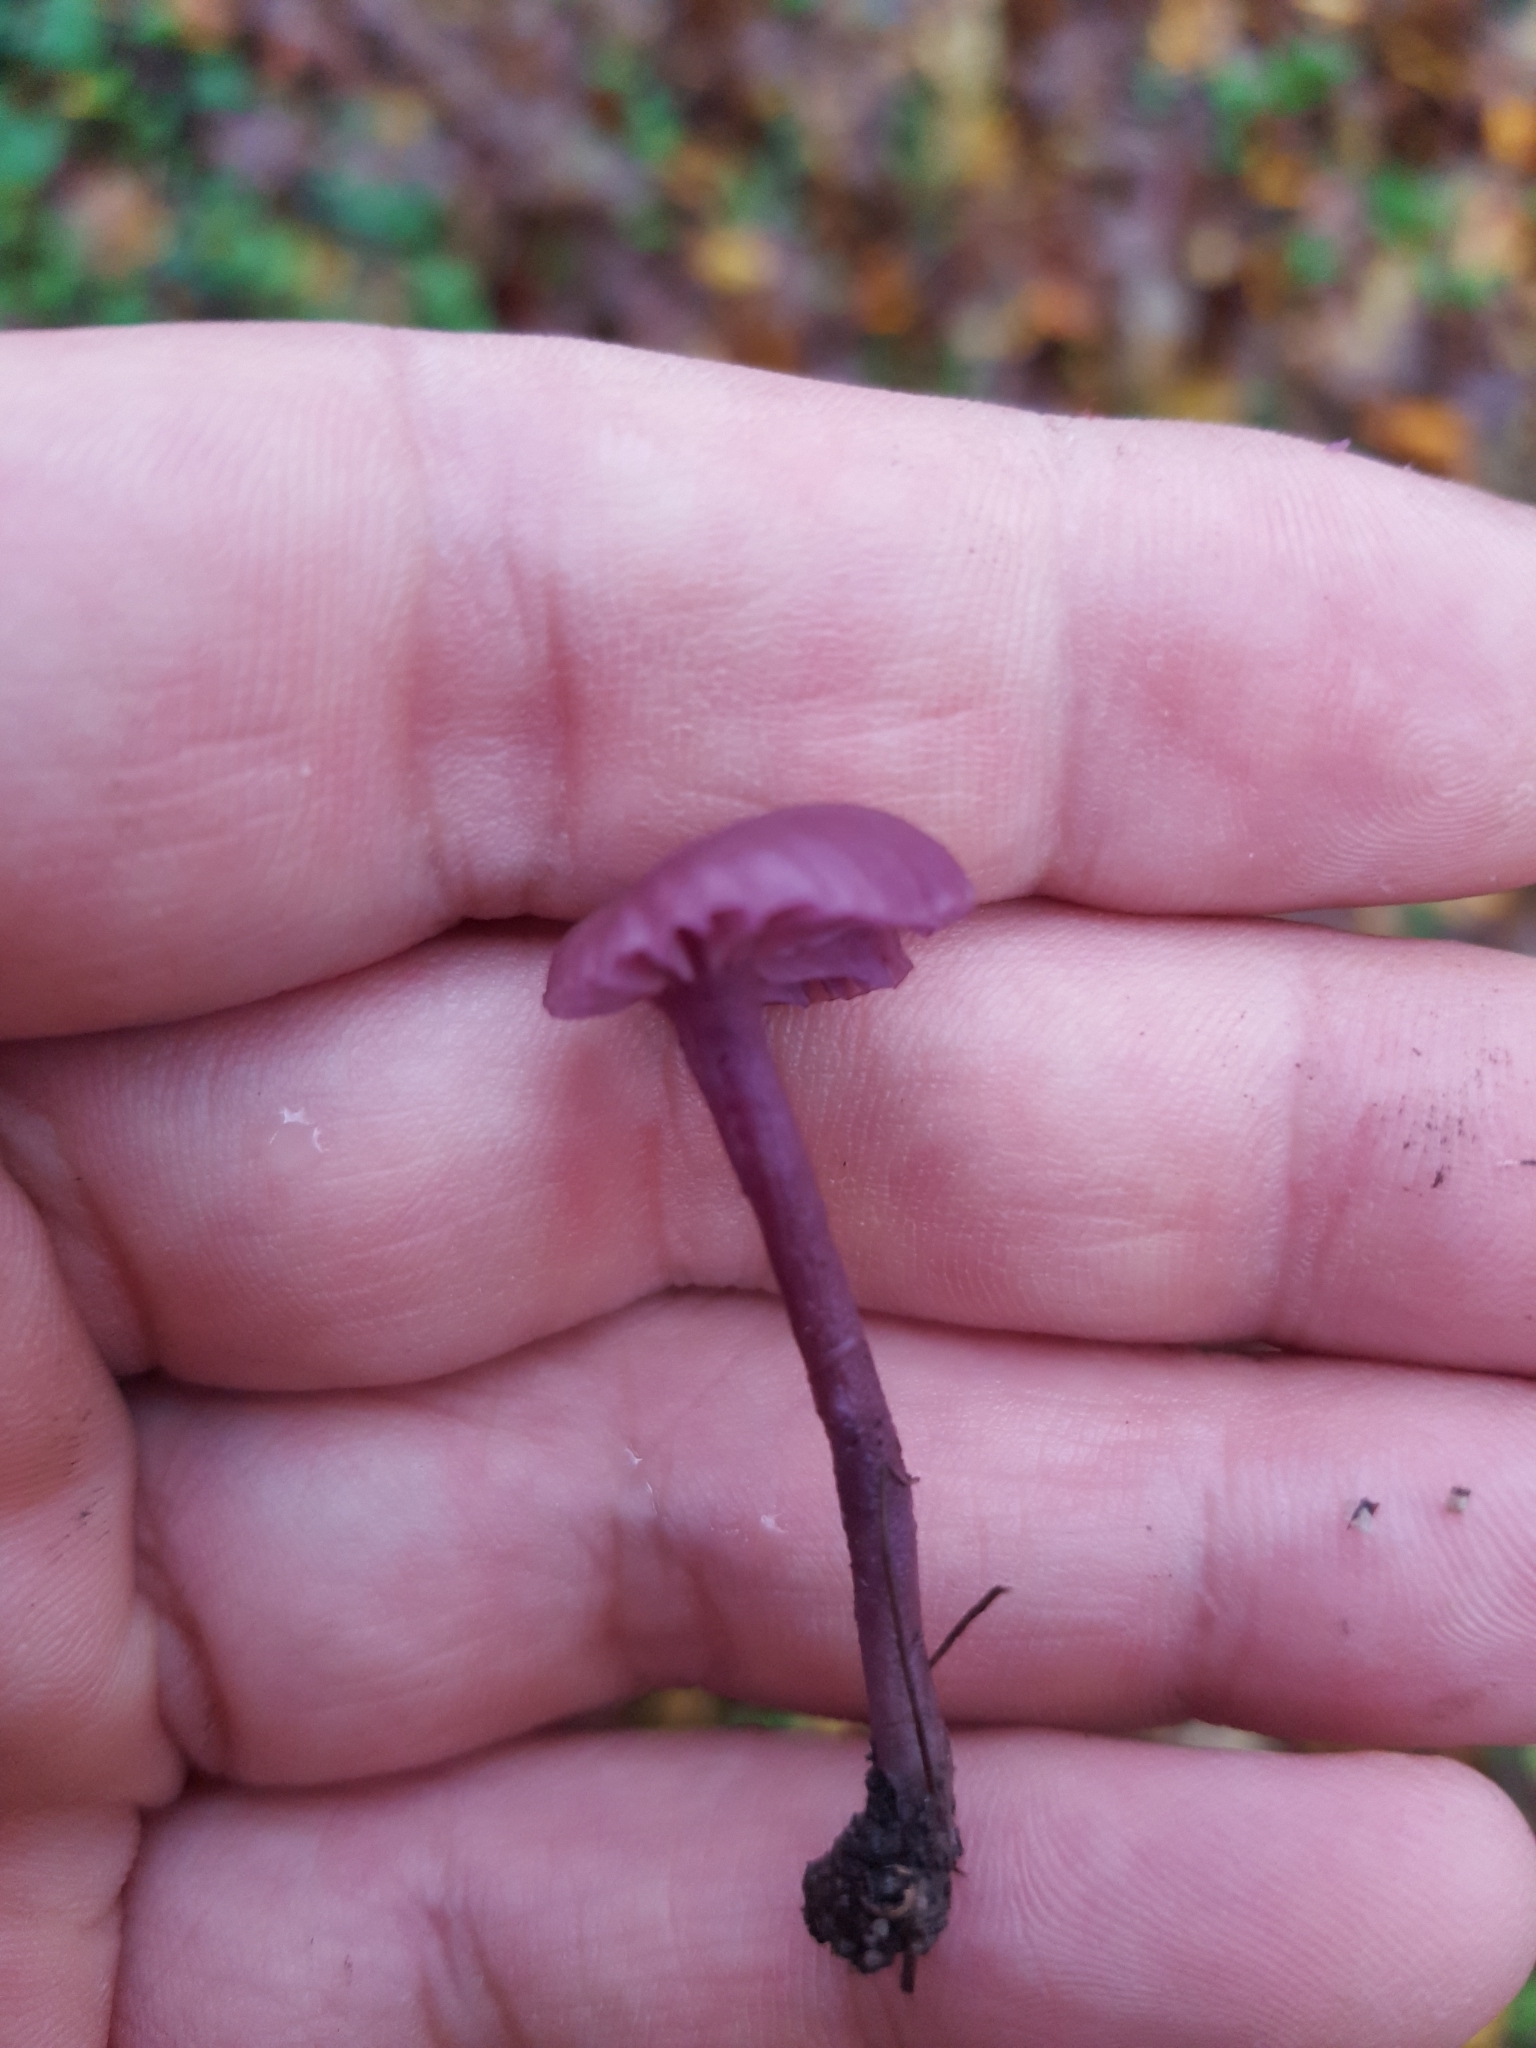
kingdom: Fungi
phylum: Basidiomycota
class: Agaricomycetes
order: Agaricales
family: Hydnangiaceae
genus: Laccaria
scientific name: Laccaria amethystina
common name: Amethyst deceiver
